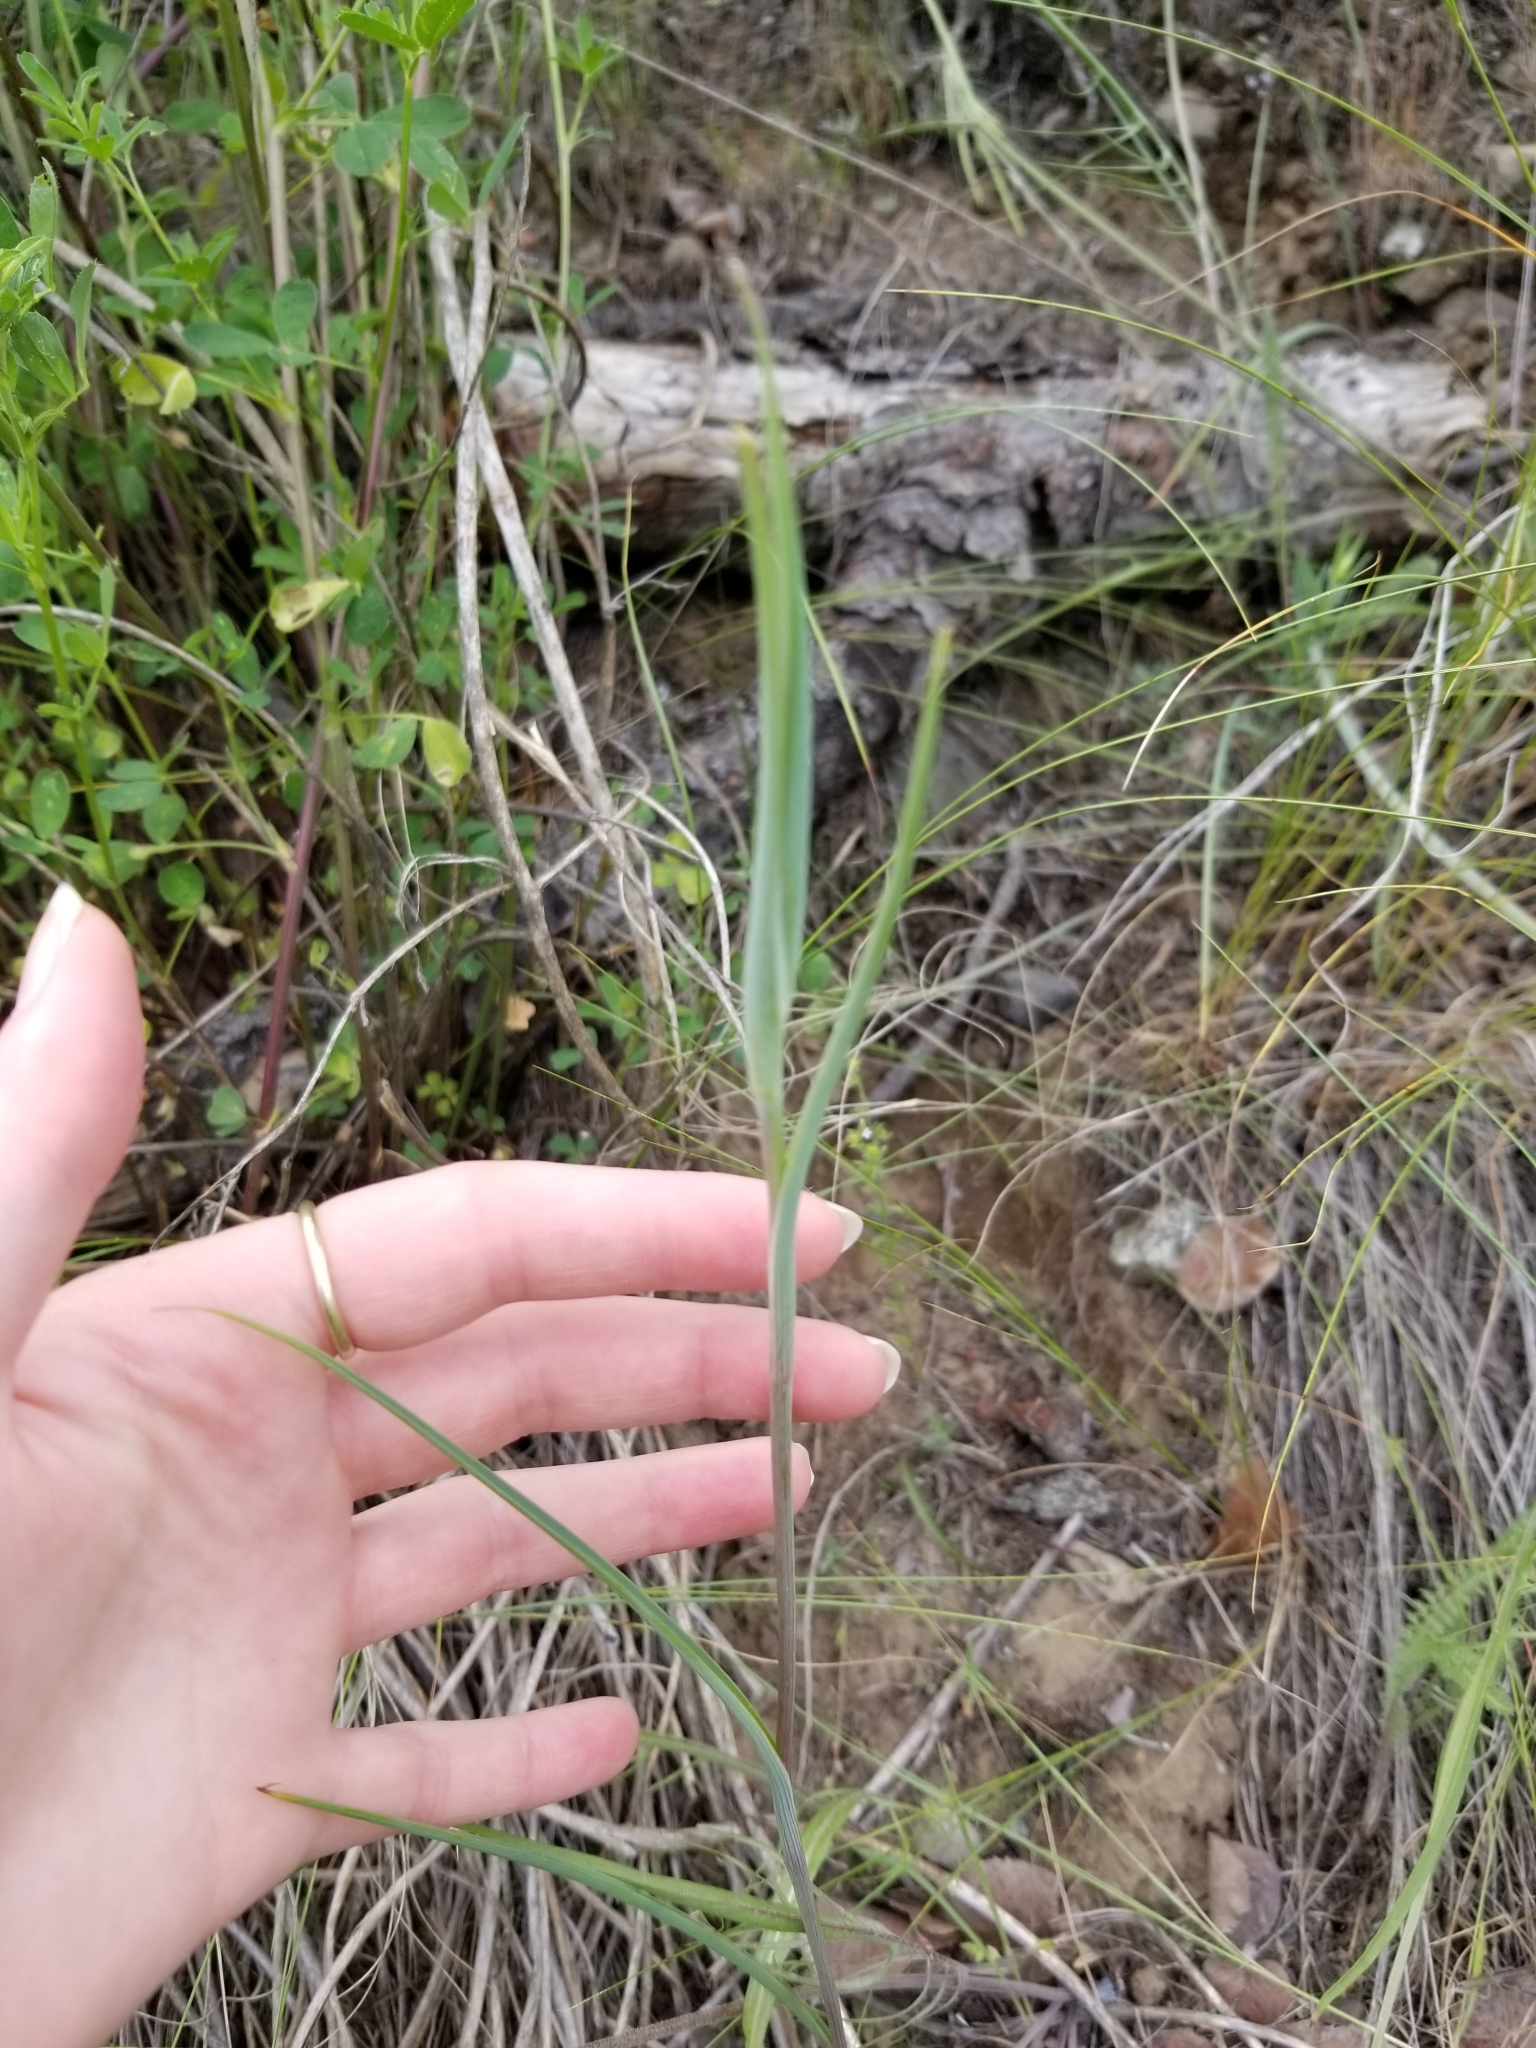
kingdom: Plantae
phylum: Tracheophyta
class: Liliopsida
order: Liliales
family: Liliaceae
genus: Calochortus
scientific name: Calochortus macrocarpus
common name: Green-band mariposa lily
